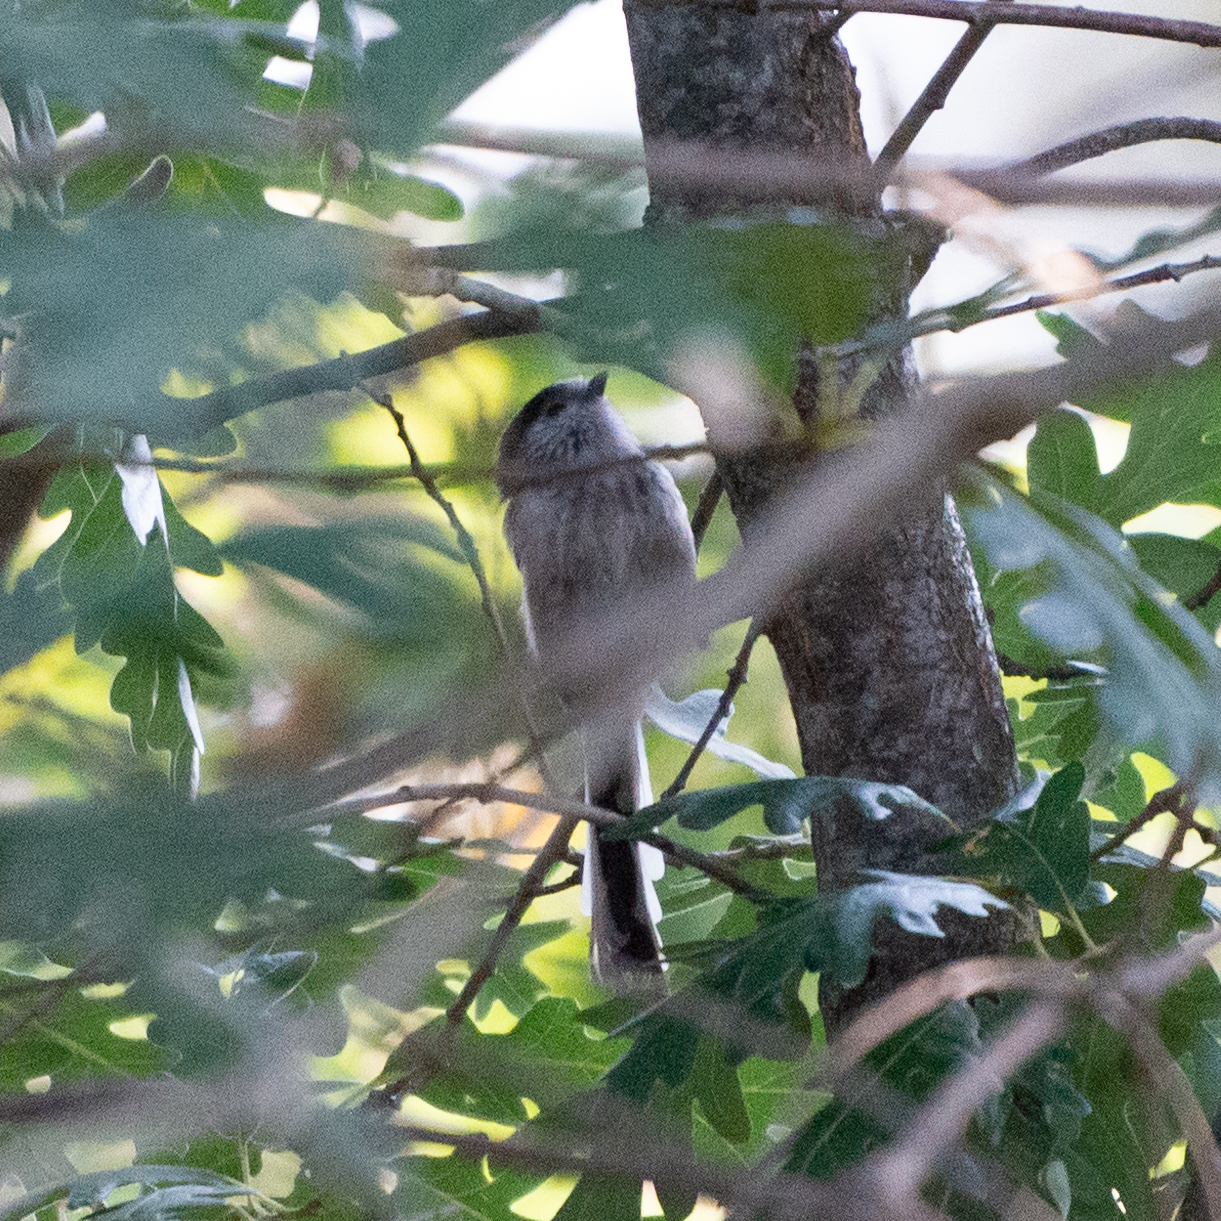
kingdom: Animalia
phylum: Chordata
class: Aves
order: Passeriformes
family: Aegithalidae
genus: Aegithalos
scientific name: Aegithalos caudatus
